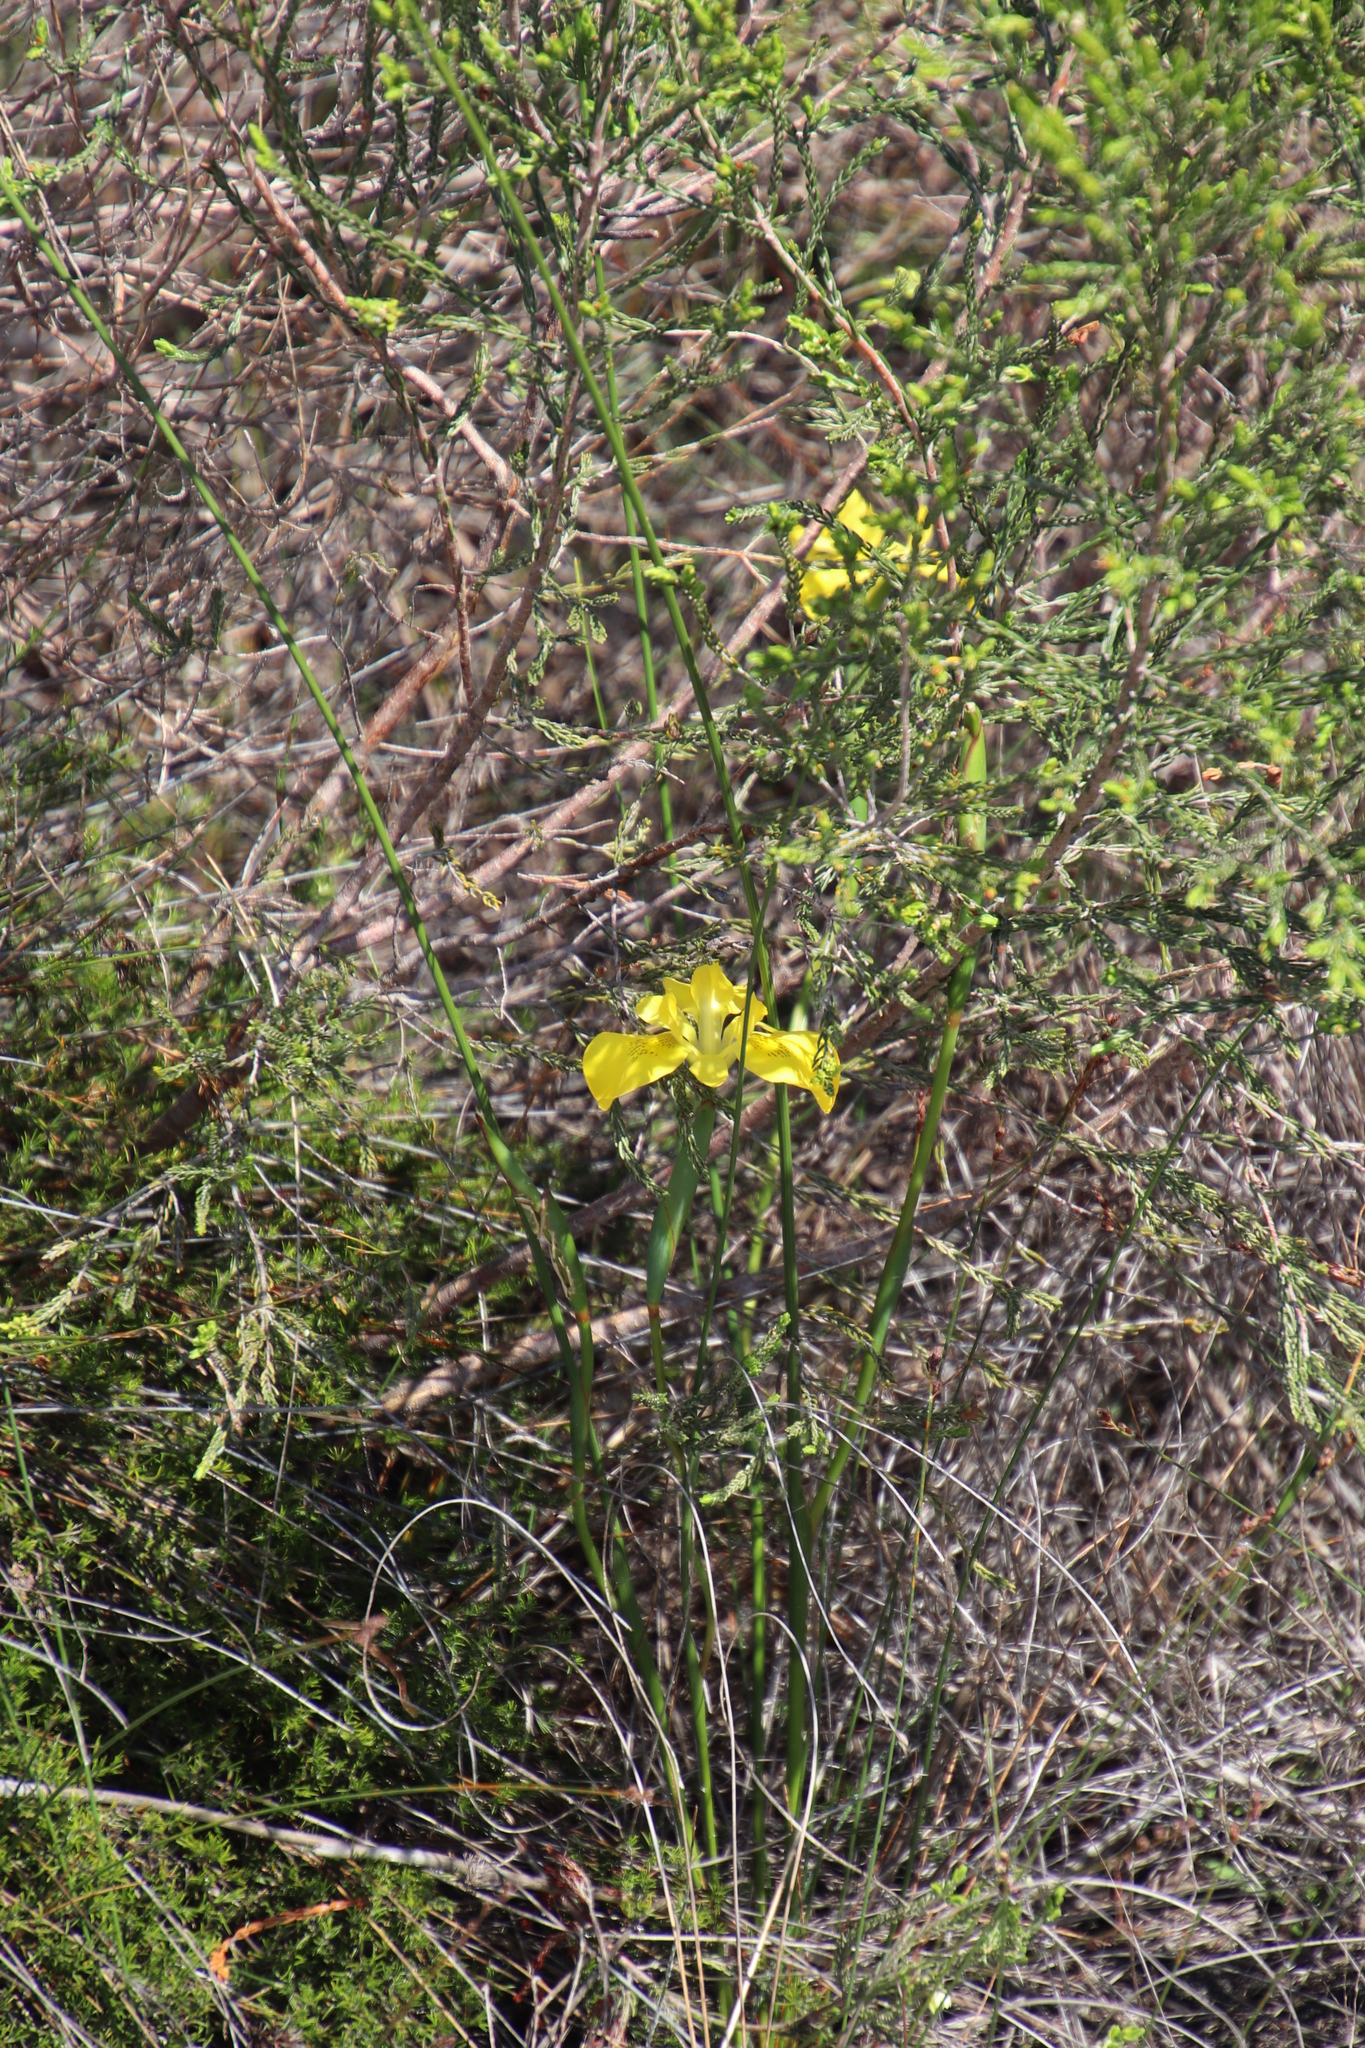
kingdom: Plantae
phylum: Tracheophyta
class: Liliopsida
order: Asparagales
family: Iridaceae
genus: Moraea
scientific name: Moraea neglecta
